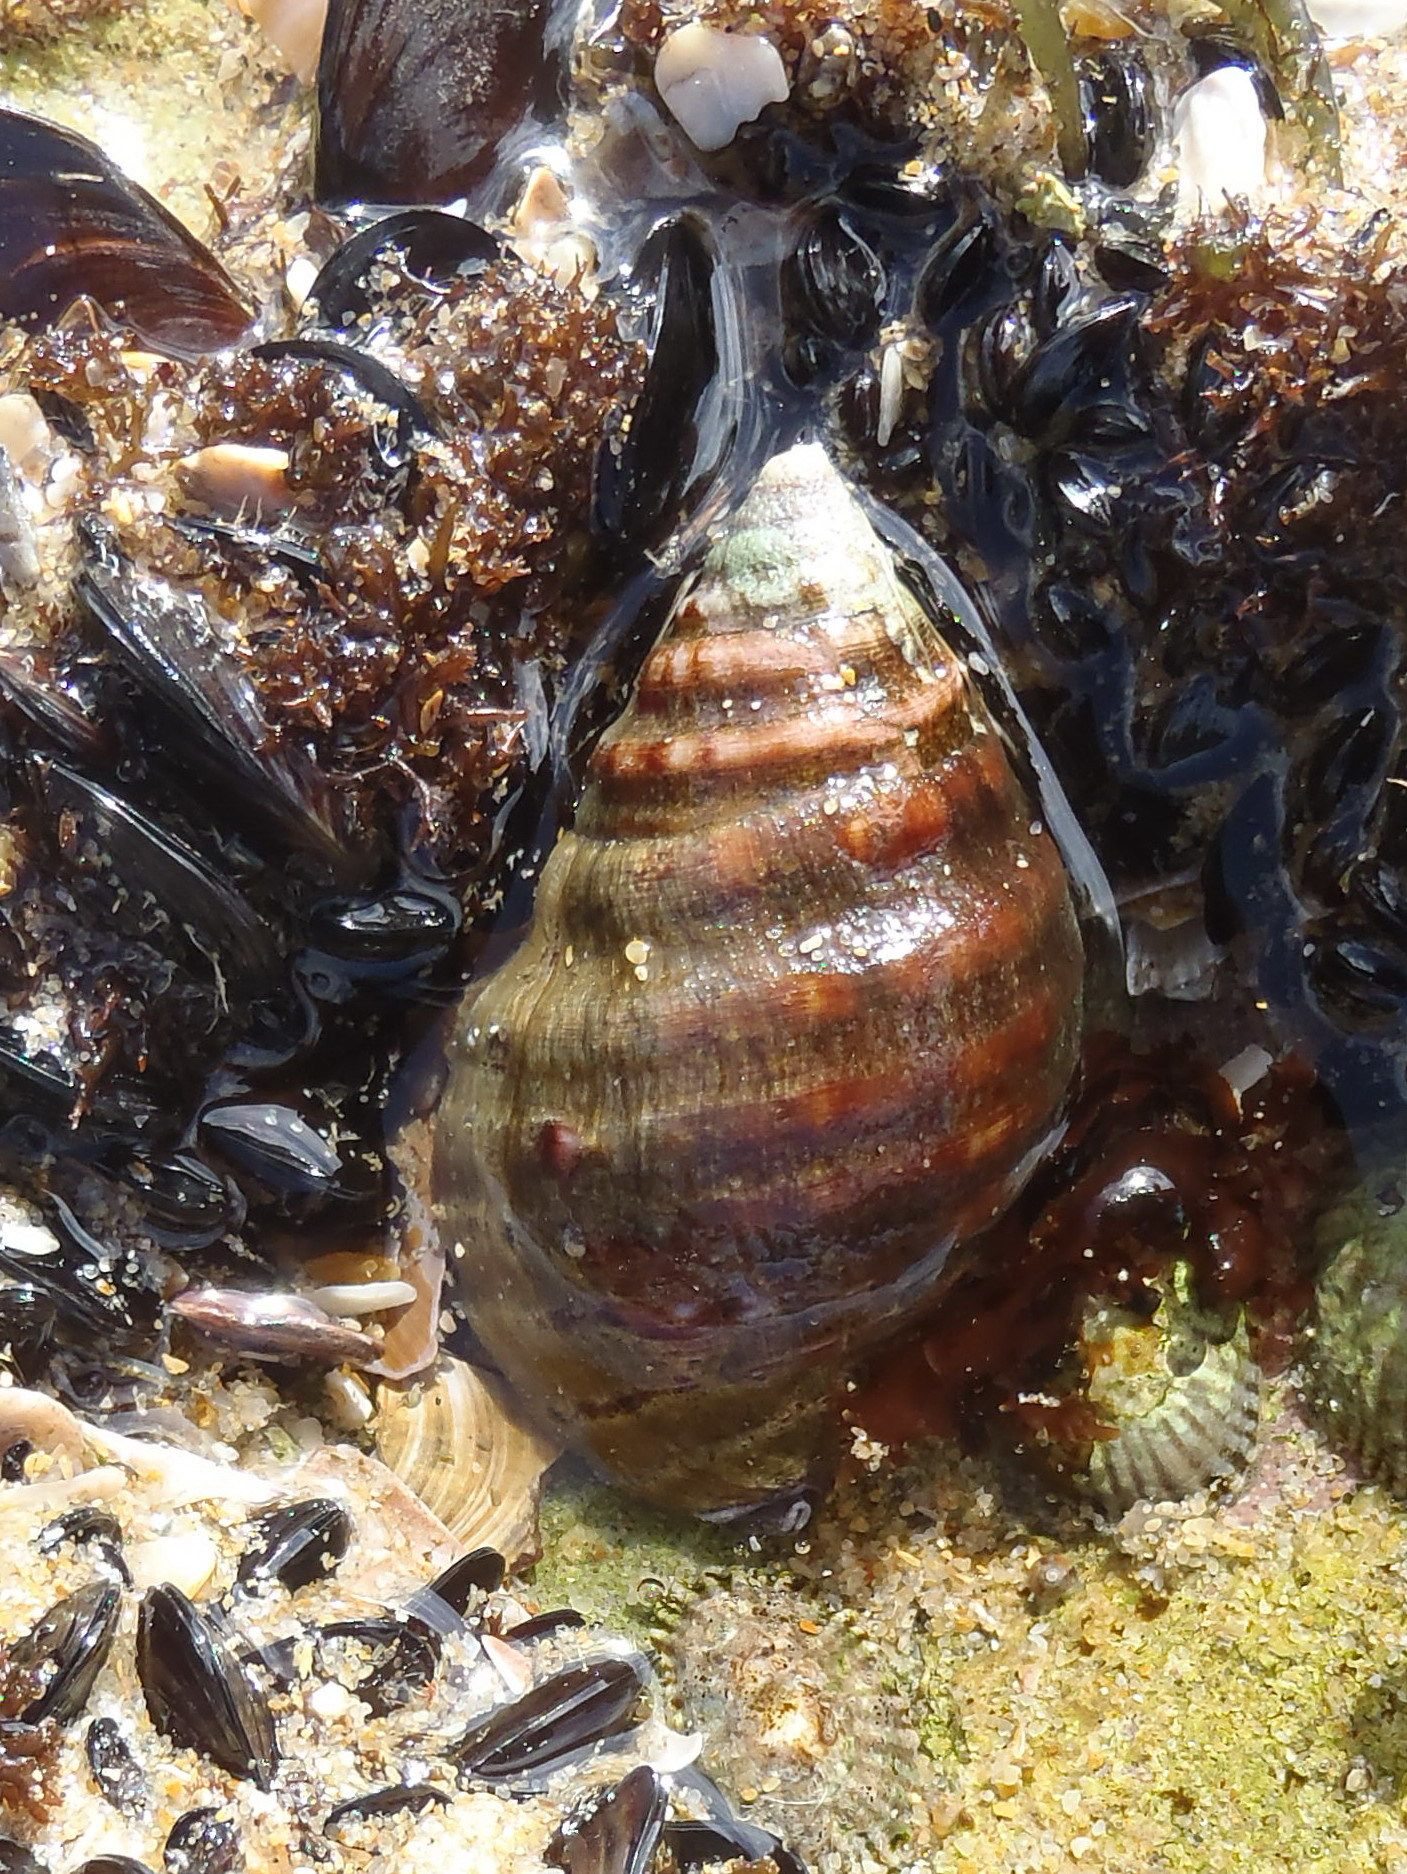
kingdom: Animalia
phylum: Mollusca
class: Gastropoda
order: Neogastropoda
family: Buccinidae
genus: Burnupena
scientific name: Burnupena lagenaria
